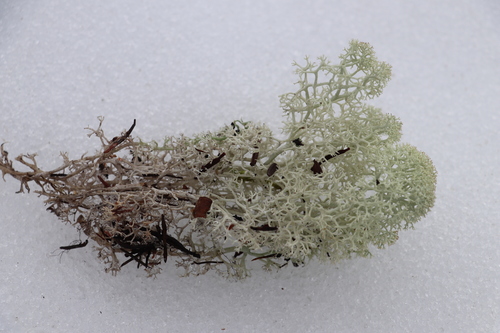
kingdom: Fungi
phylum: Ascomycota
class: Lecanoromycetes
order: Lecanorales
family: Cladoniaceae
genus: Cladonia
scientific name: Cladonia stellaris
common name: Star-tipped reindeer lichen
